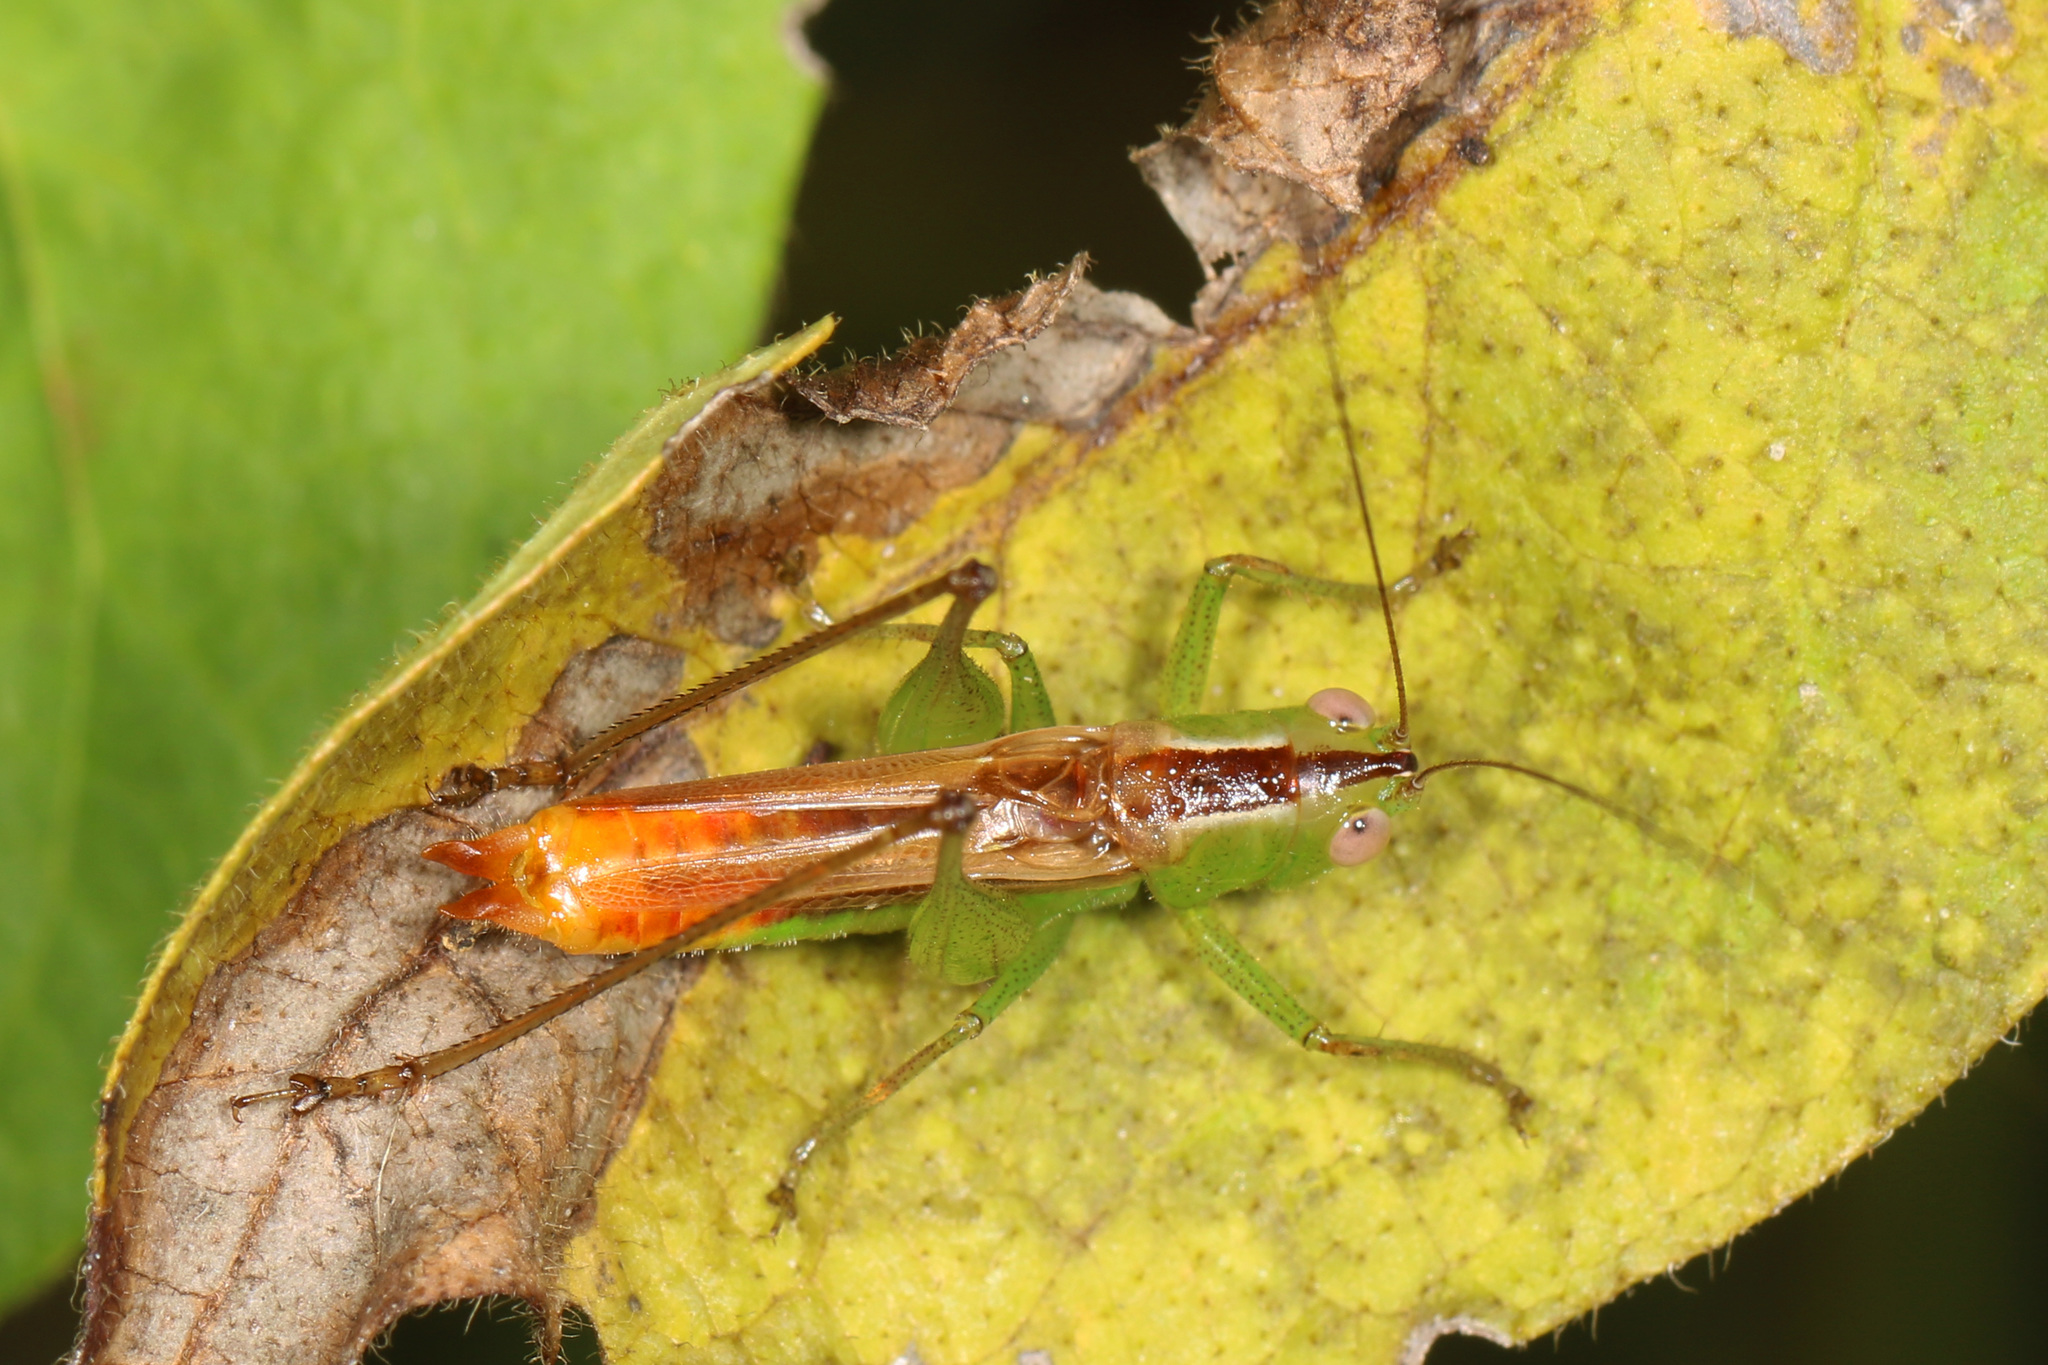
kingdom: Animalia
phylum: Arthropoda
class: Insecta
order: Orthoptera
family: Tettigoniidae
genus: Conocephalus
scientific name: Conocephalus brevipennis
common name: Short-winged meadow katydid
